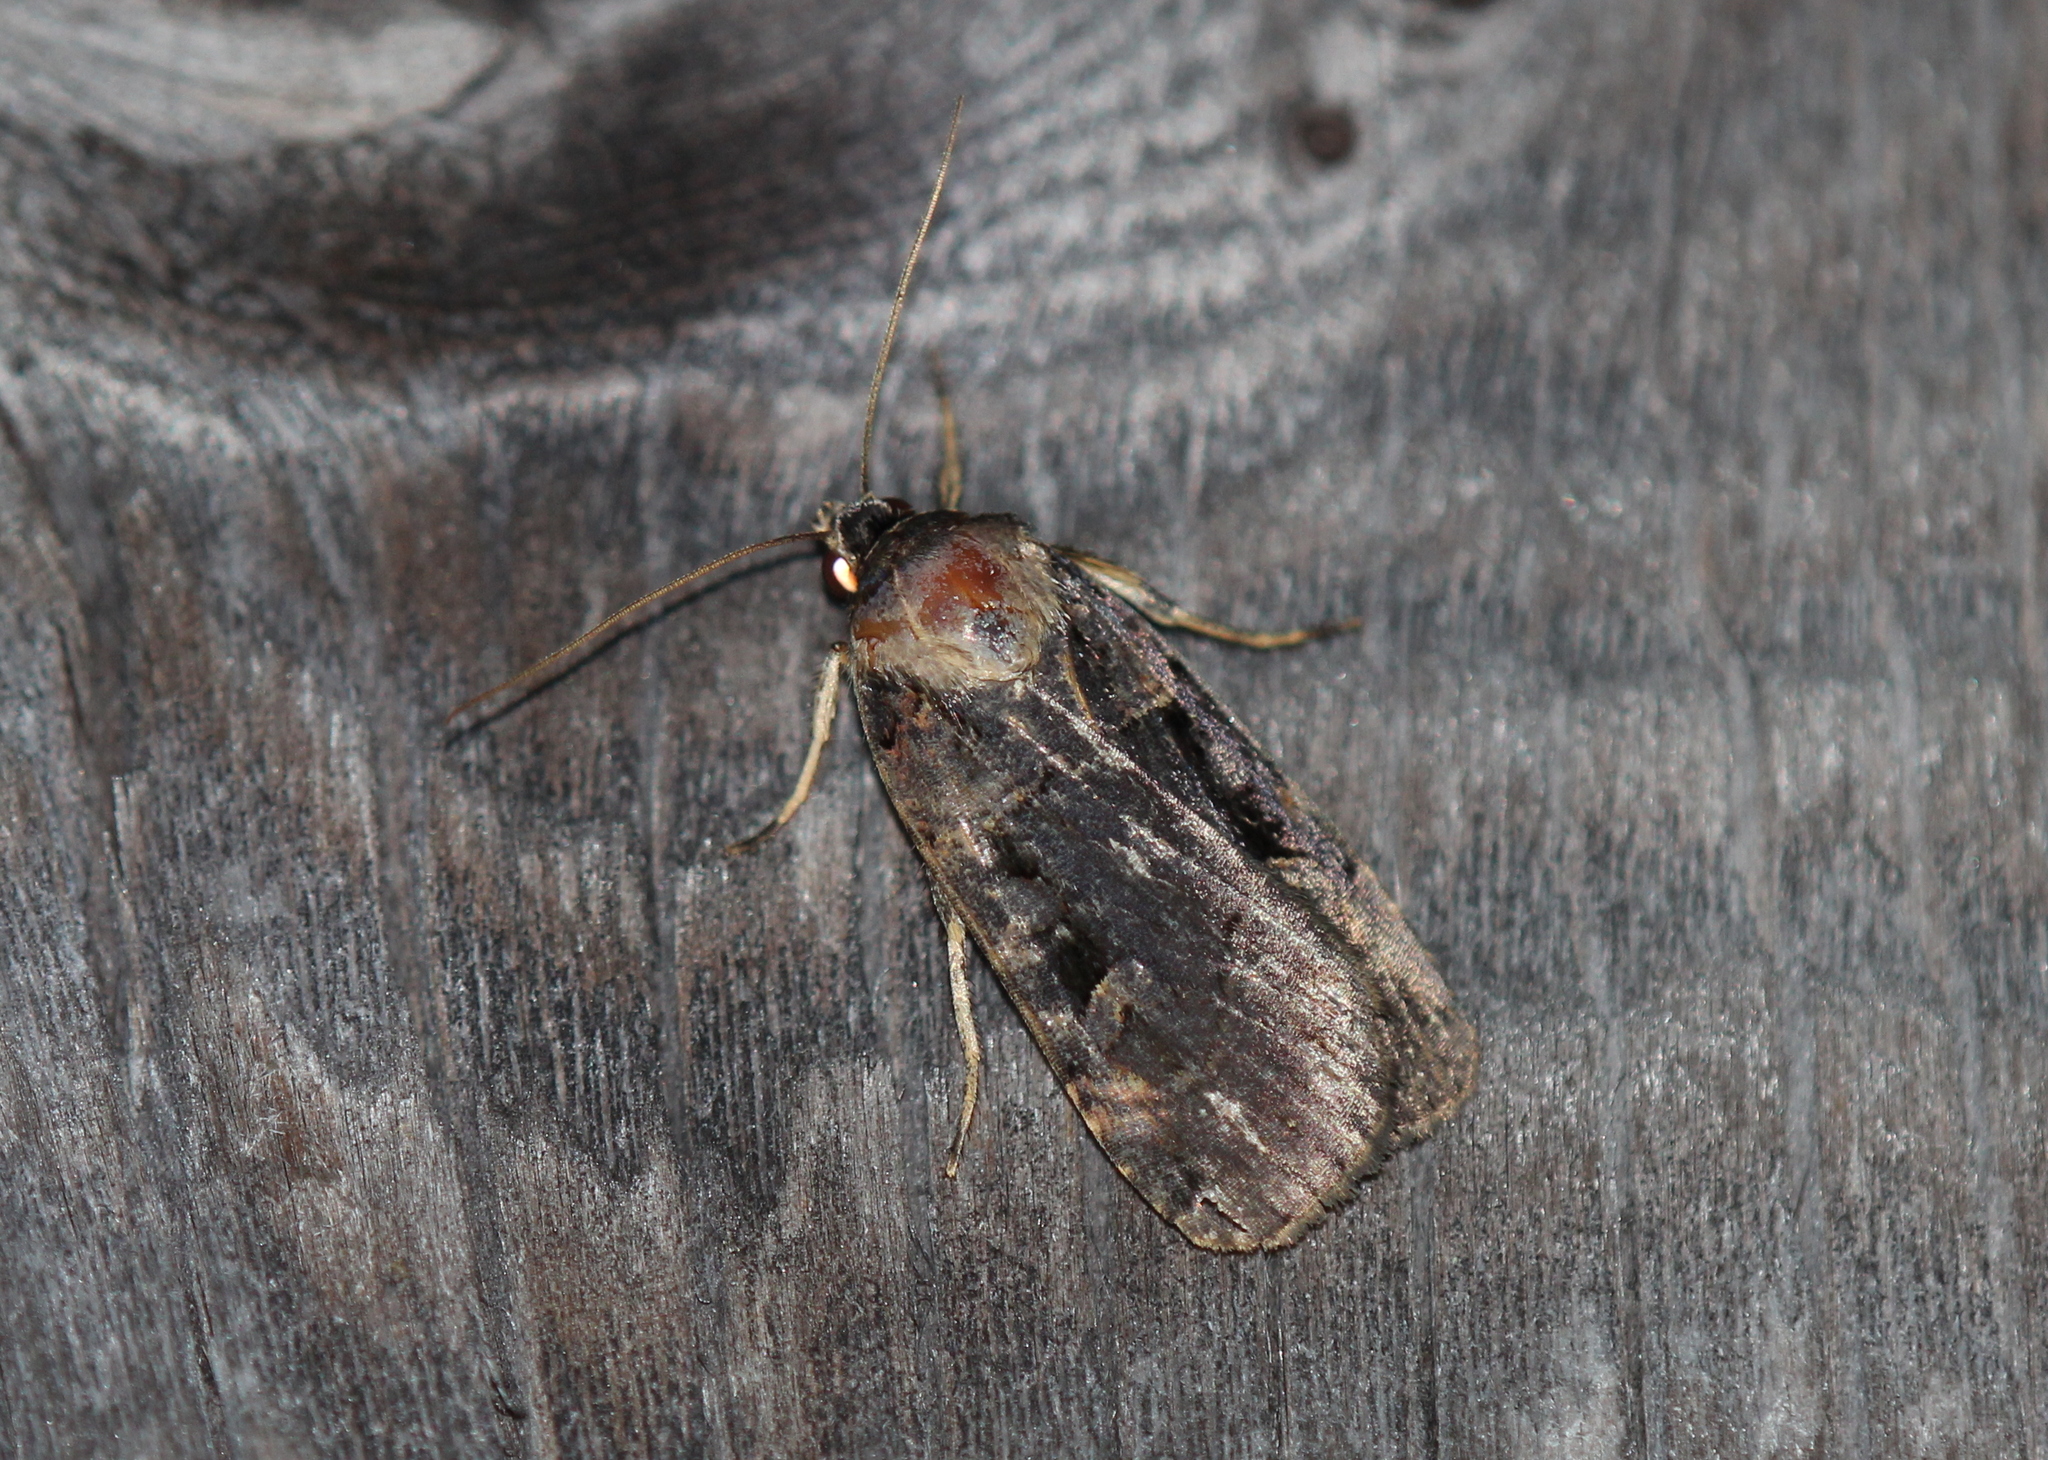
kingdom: Animalia
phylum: Arthropoda
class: Insecta
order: Lepidoptera
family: Noctuidae
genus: Pseudohermonassa
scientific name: Pseudohermonassa bicarnea
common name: Pink spotted dart
